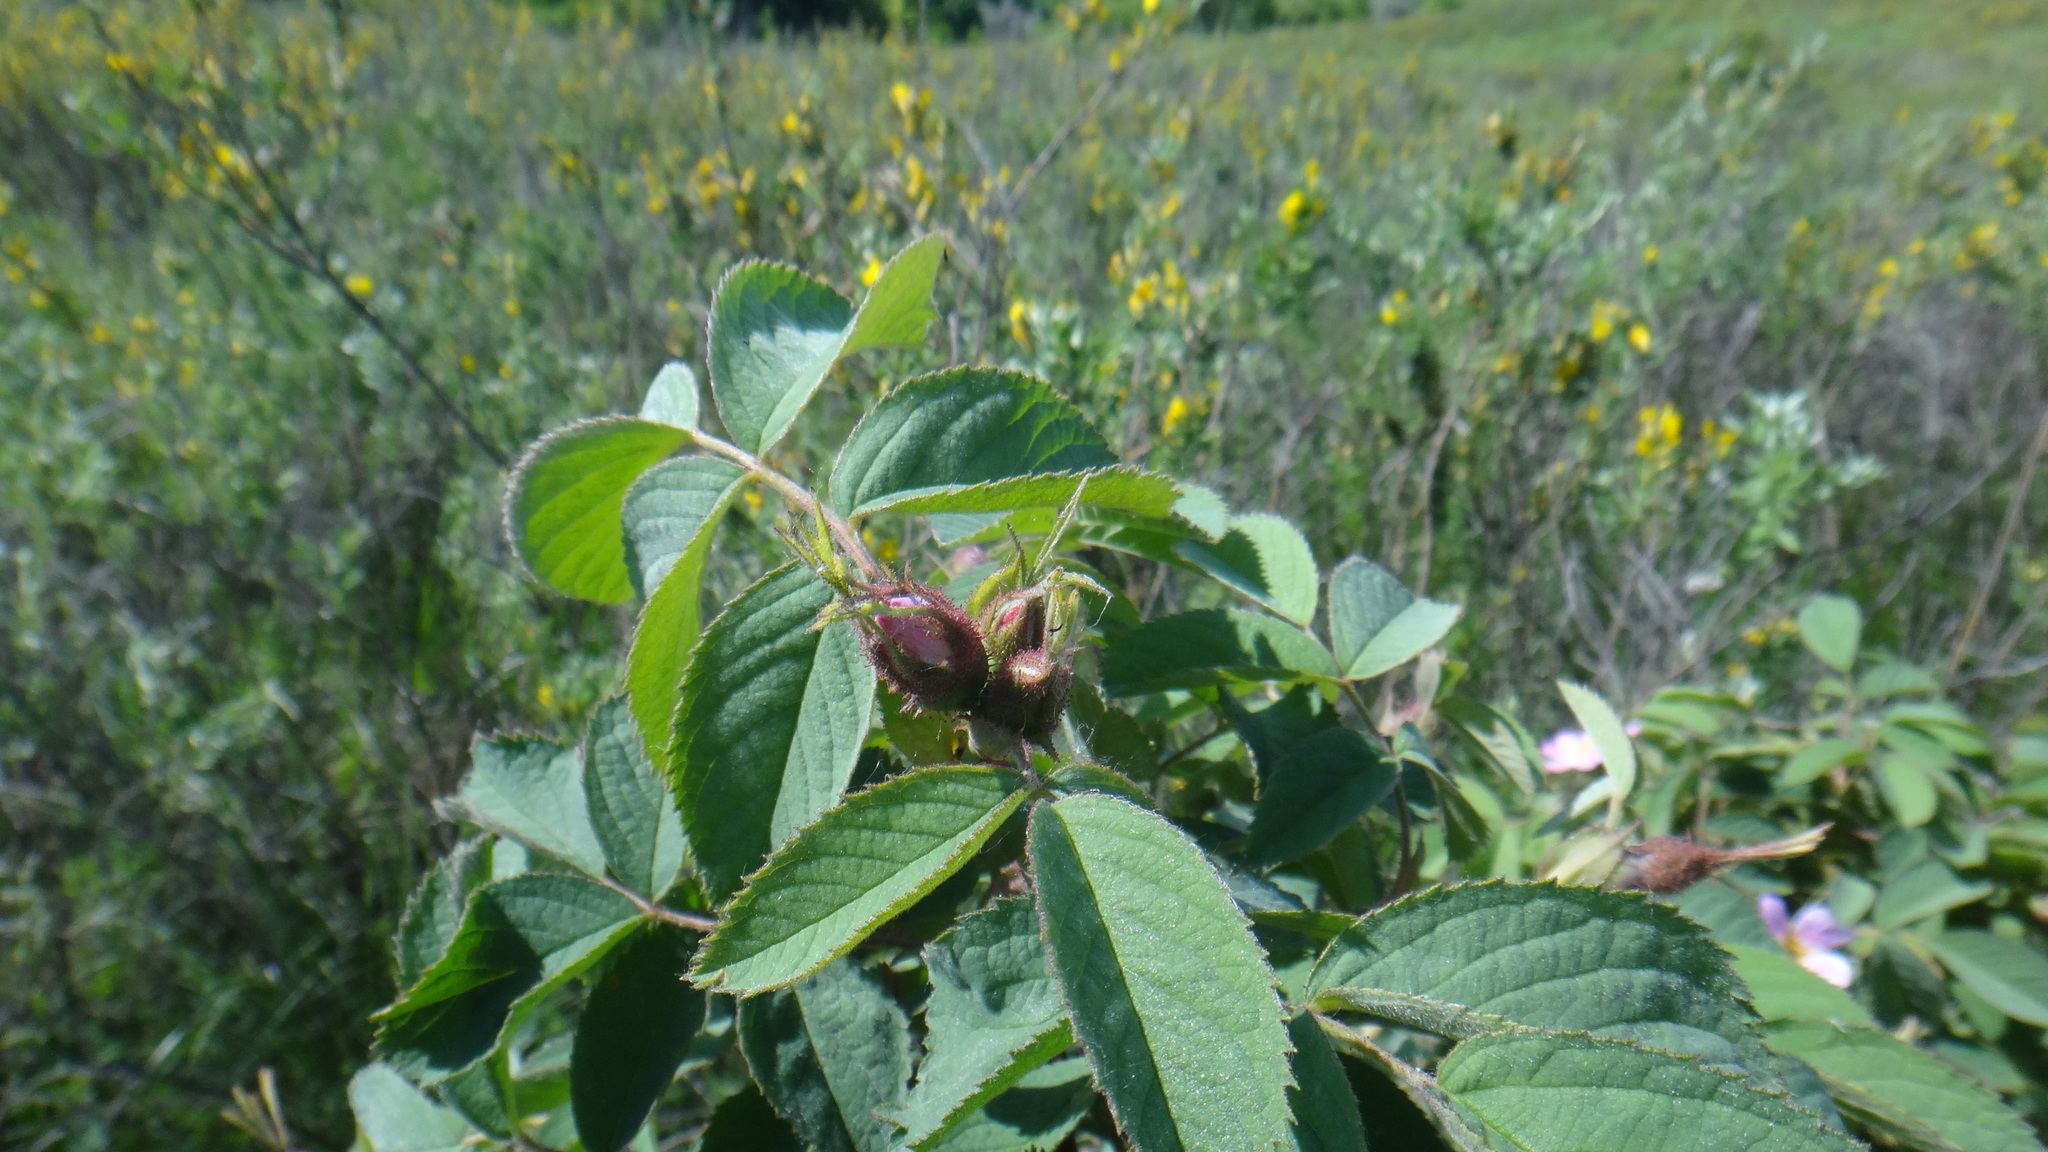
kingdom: Plantae
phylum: Tracheophyta
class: Magnoliopsida
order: Rosales
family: Rosaceae
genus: Rosa
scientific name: Rosa villosa
